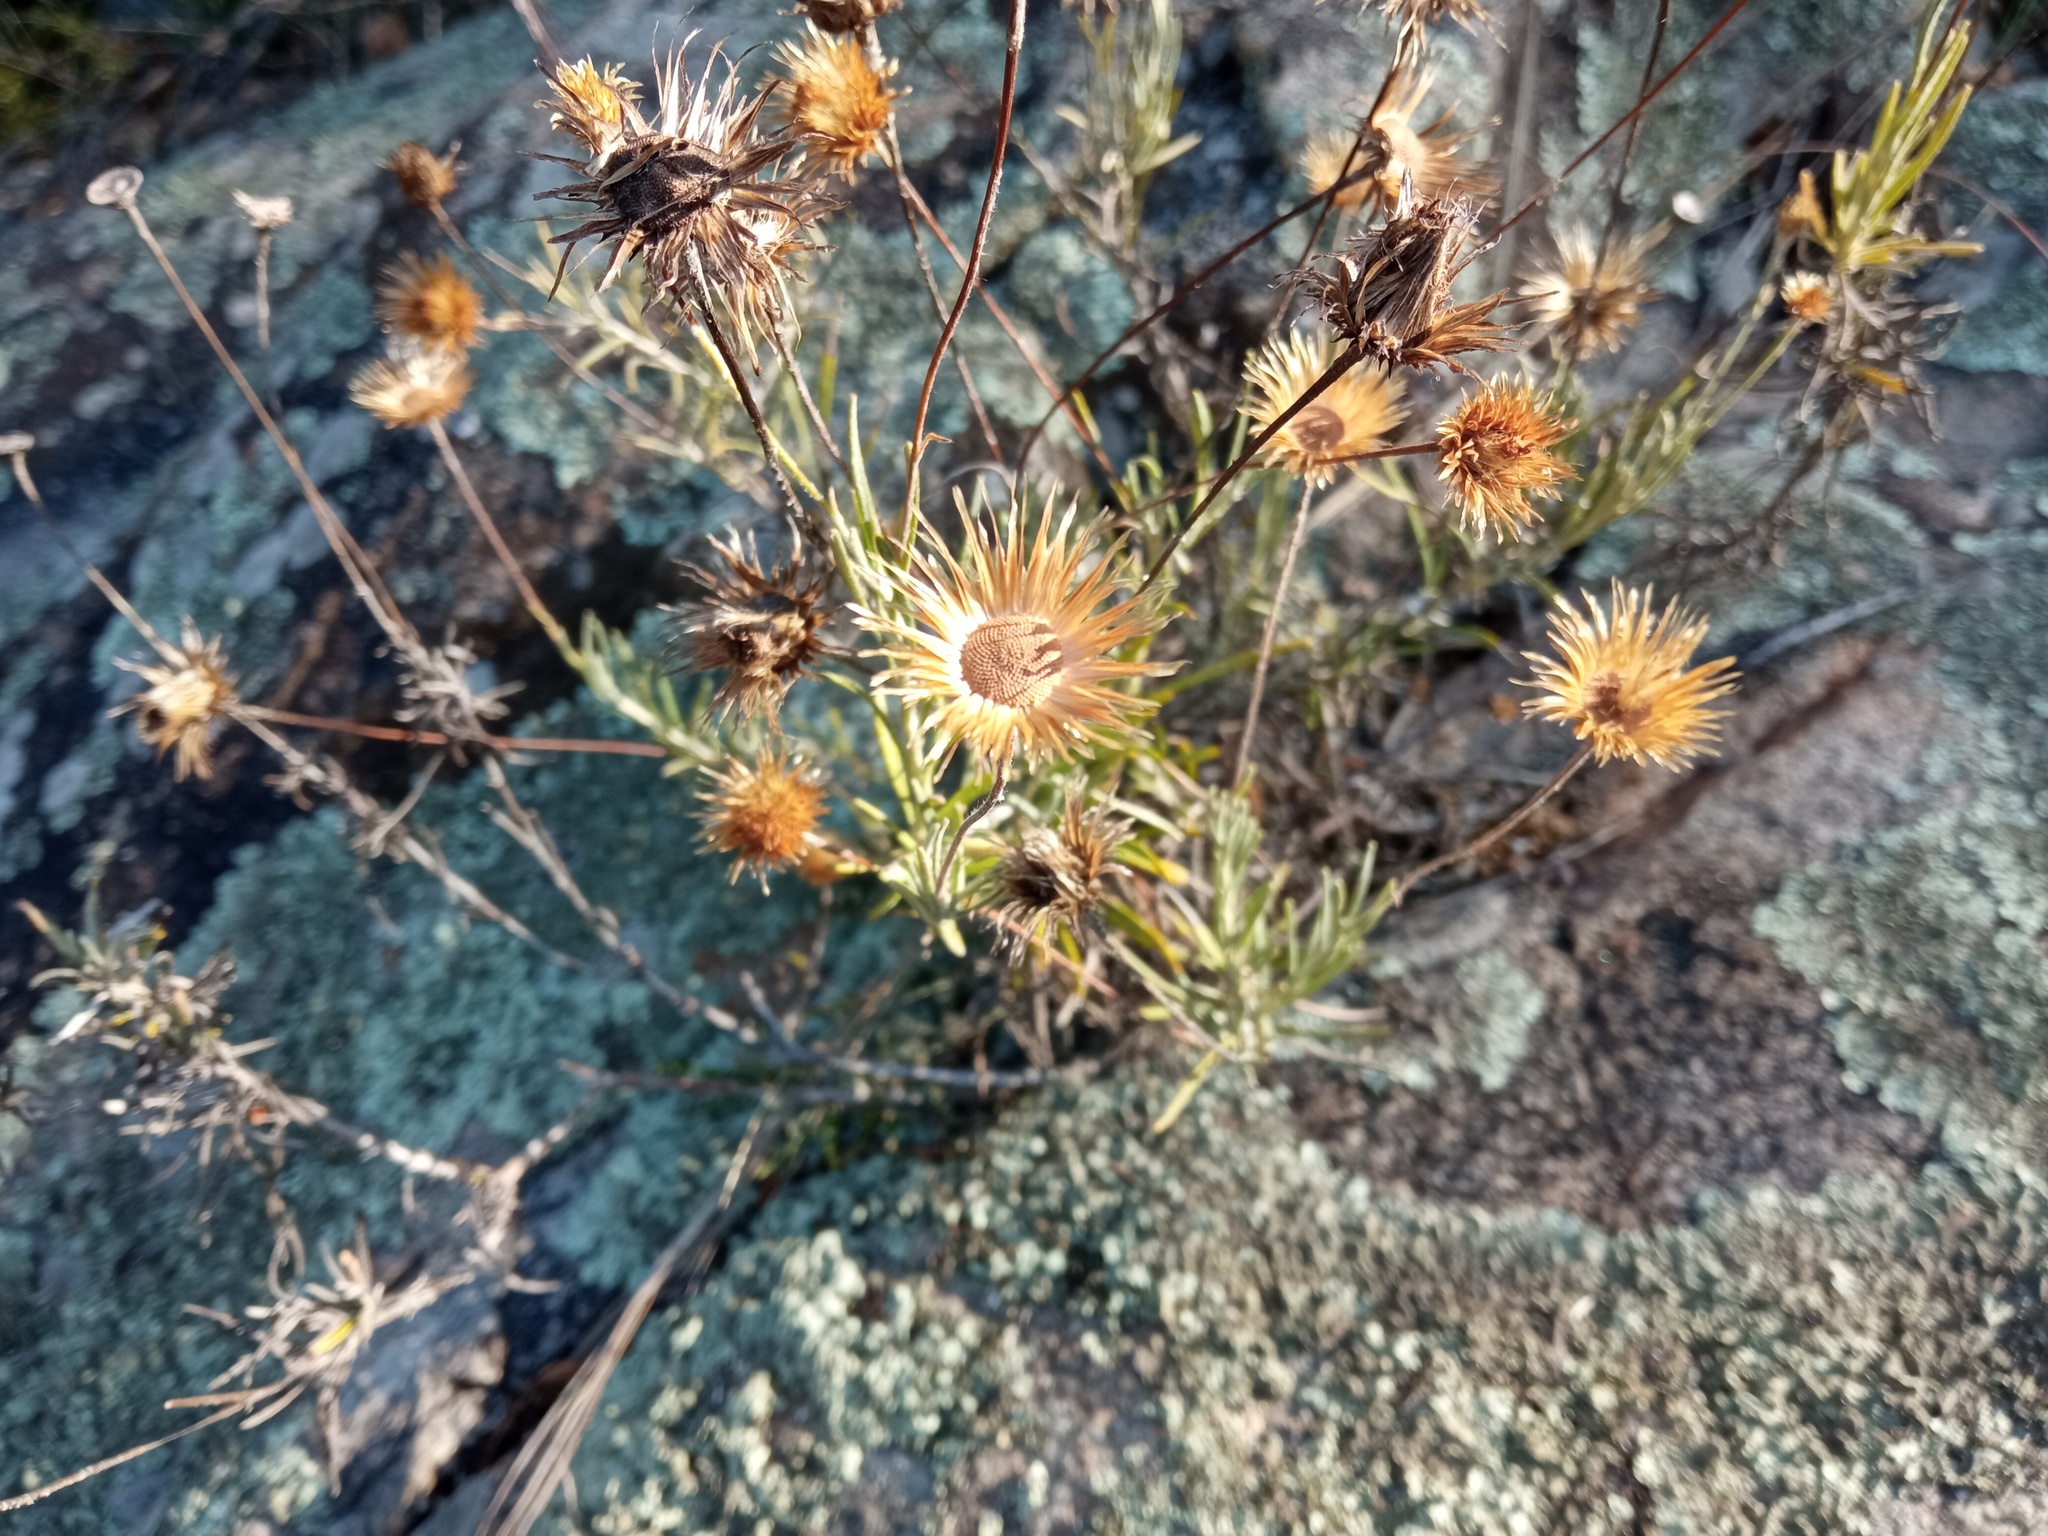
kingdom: Plantae
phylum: Tracheophyta
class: Magnoliopsida
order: Asterales
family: Asteraceae
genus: Phagnalon
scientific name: Phagnalon saxatile
